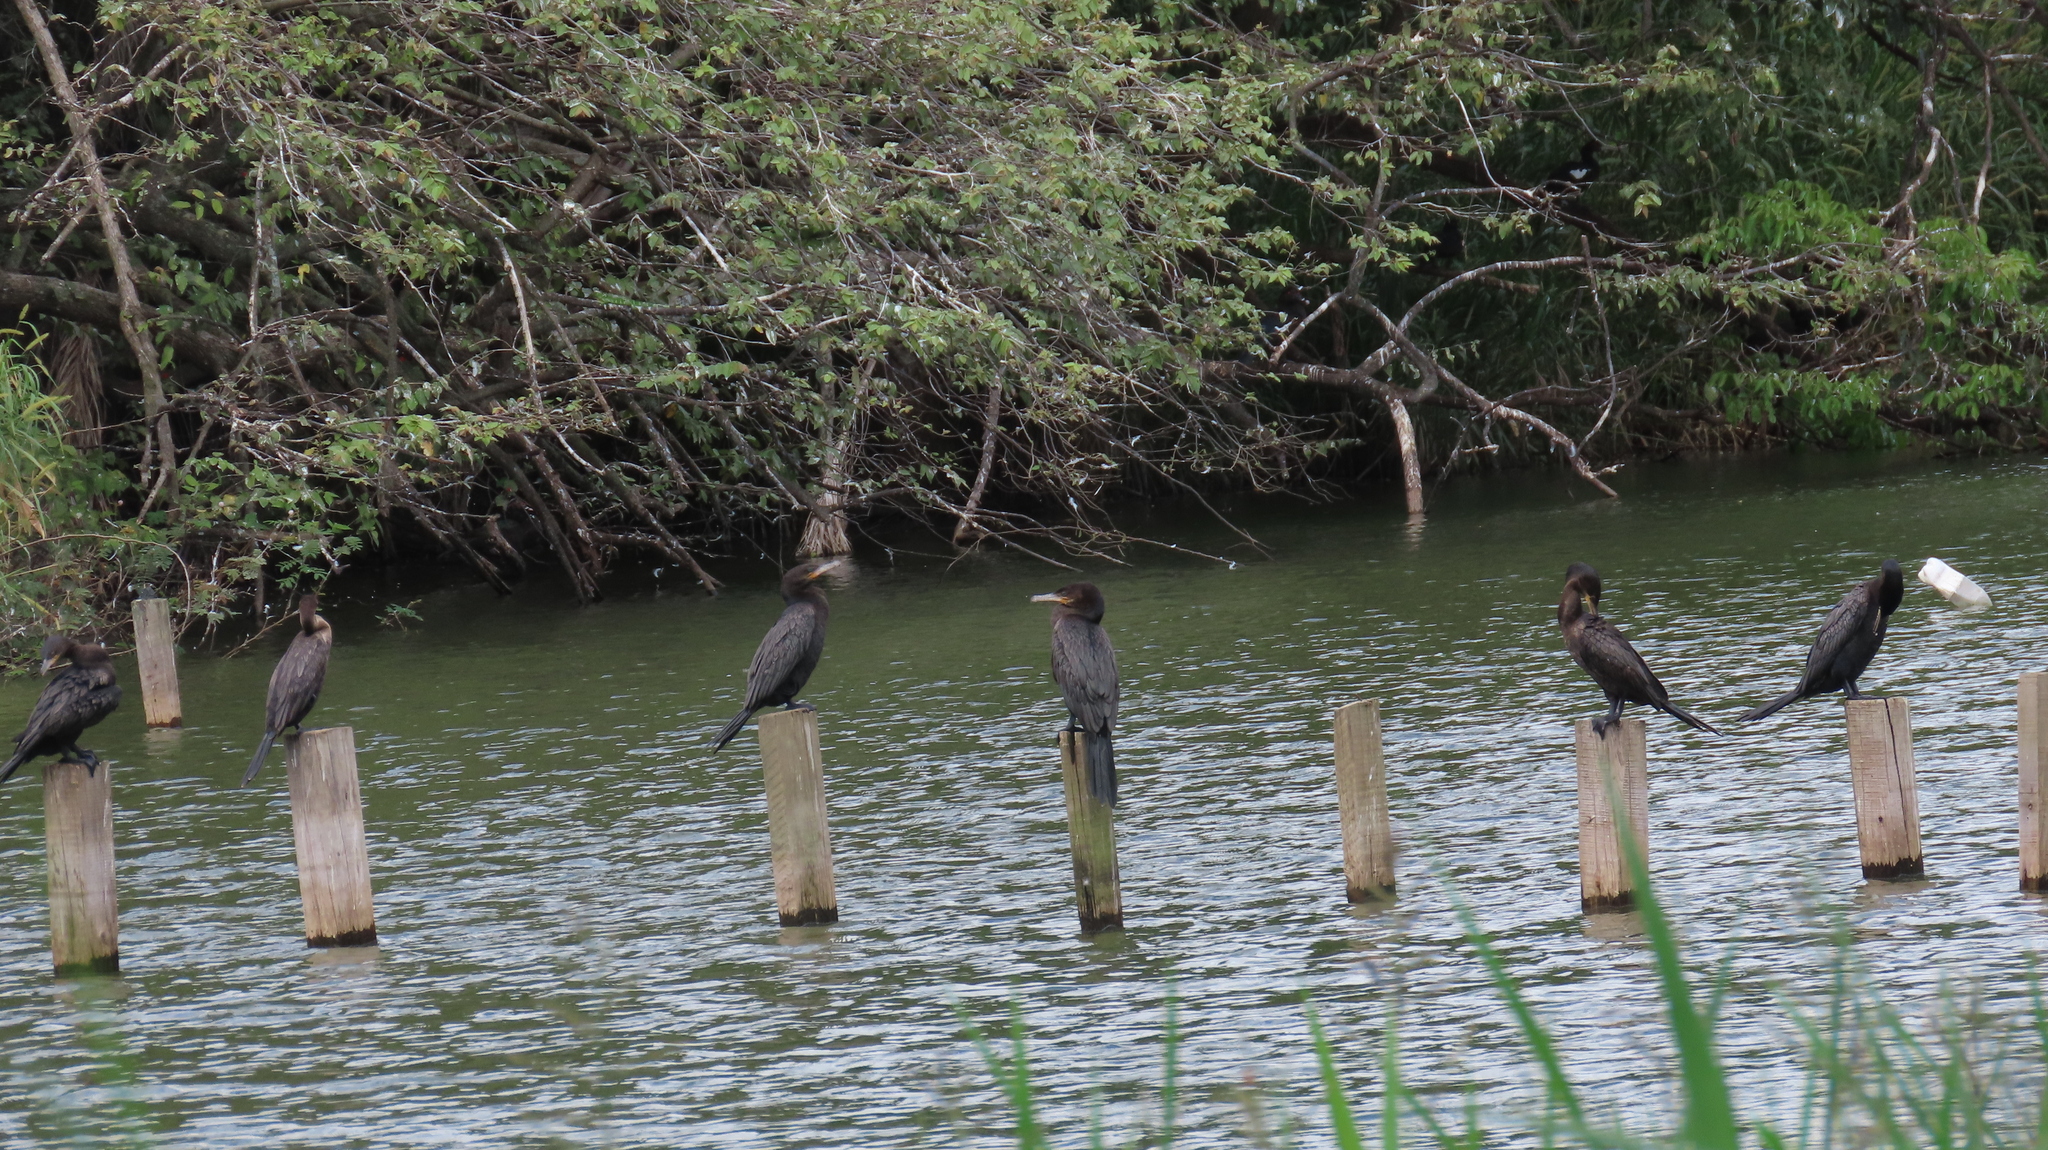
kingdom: Animalia
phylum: Chordata
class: Aves
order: Suliformes
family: Phalacrocoracidae
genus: Phalacrocorax
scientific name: Phalacrocorax brasilianus
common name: Neotropic cormorant
